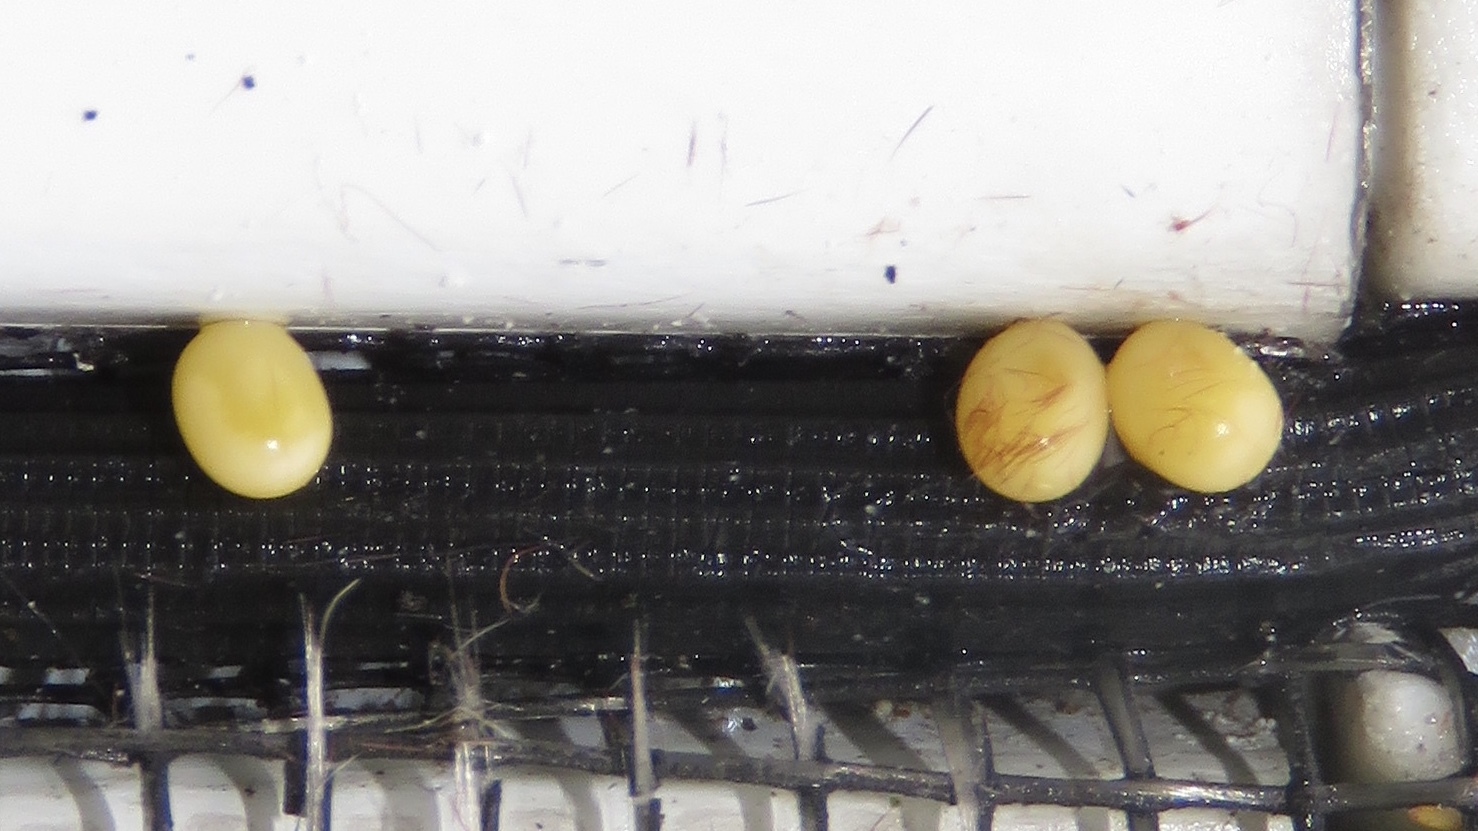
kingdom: Animalia
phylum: Arthropoda
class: Insecta
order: Lepidoptera
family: Saturniidae
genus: Callosamia
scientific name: Callosamia promethea
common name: Promethea silkmoth
